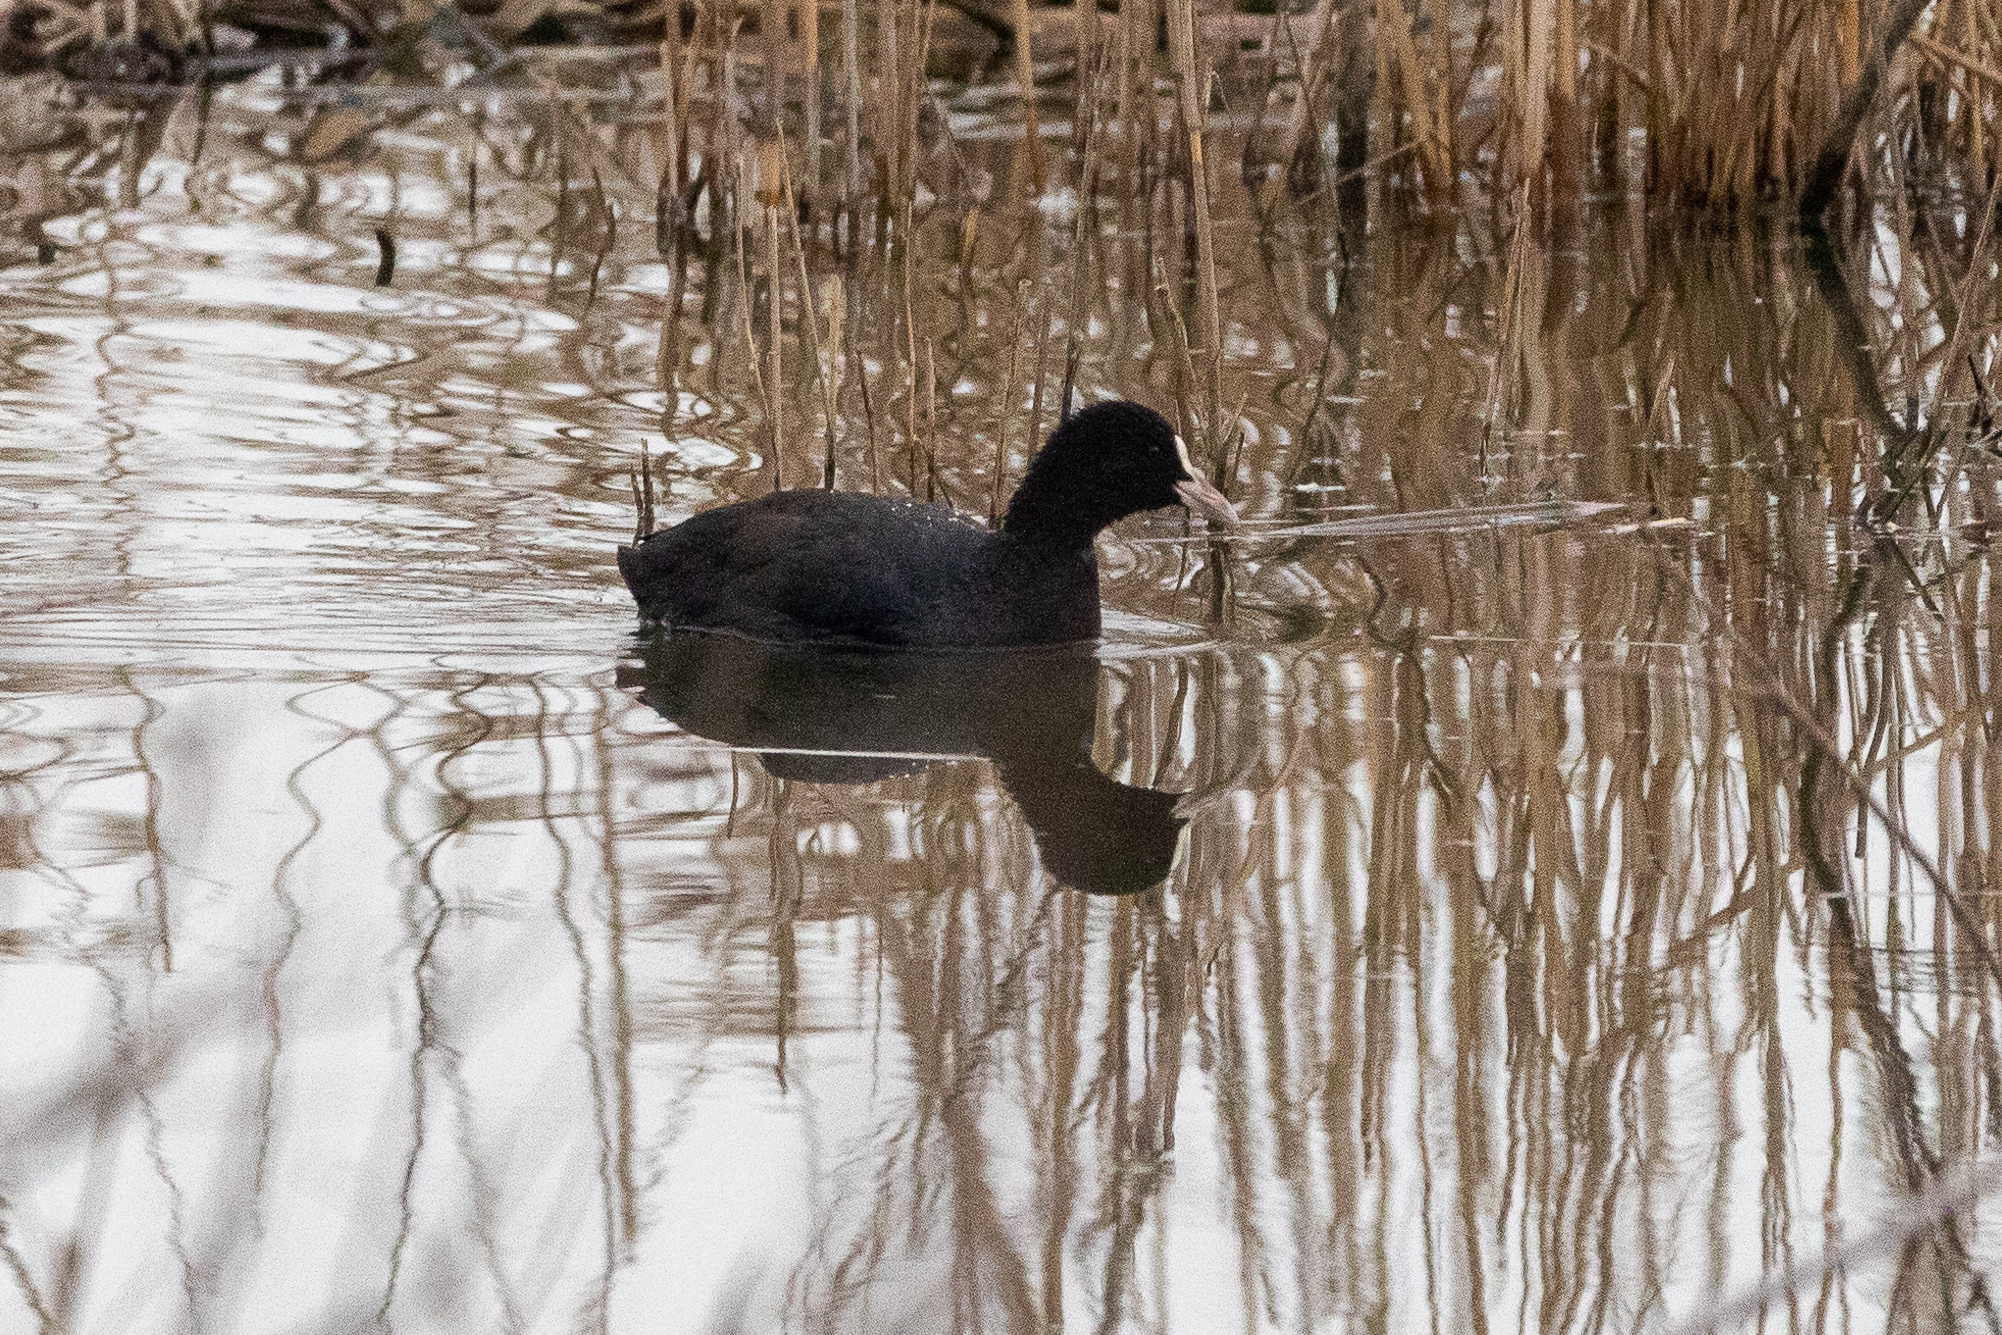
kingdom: Animalia
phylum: Chordata
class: Aves
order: Gruiformes
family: Rallidae
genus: Fulica
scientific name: Fulica atra
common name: Eurasian coot
